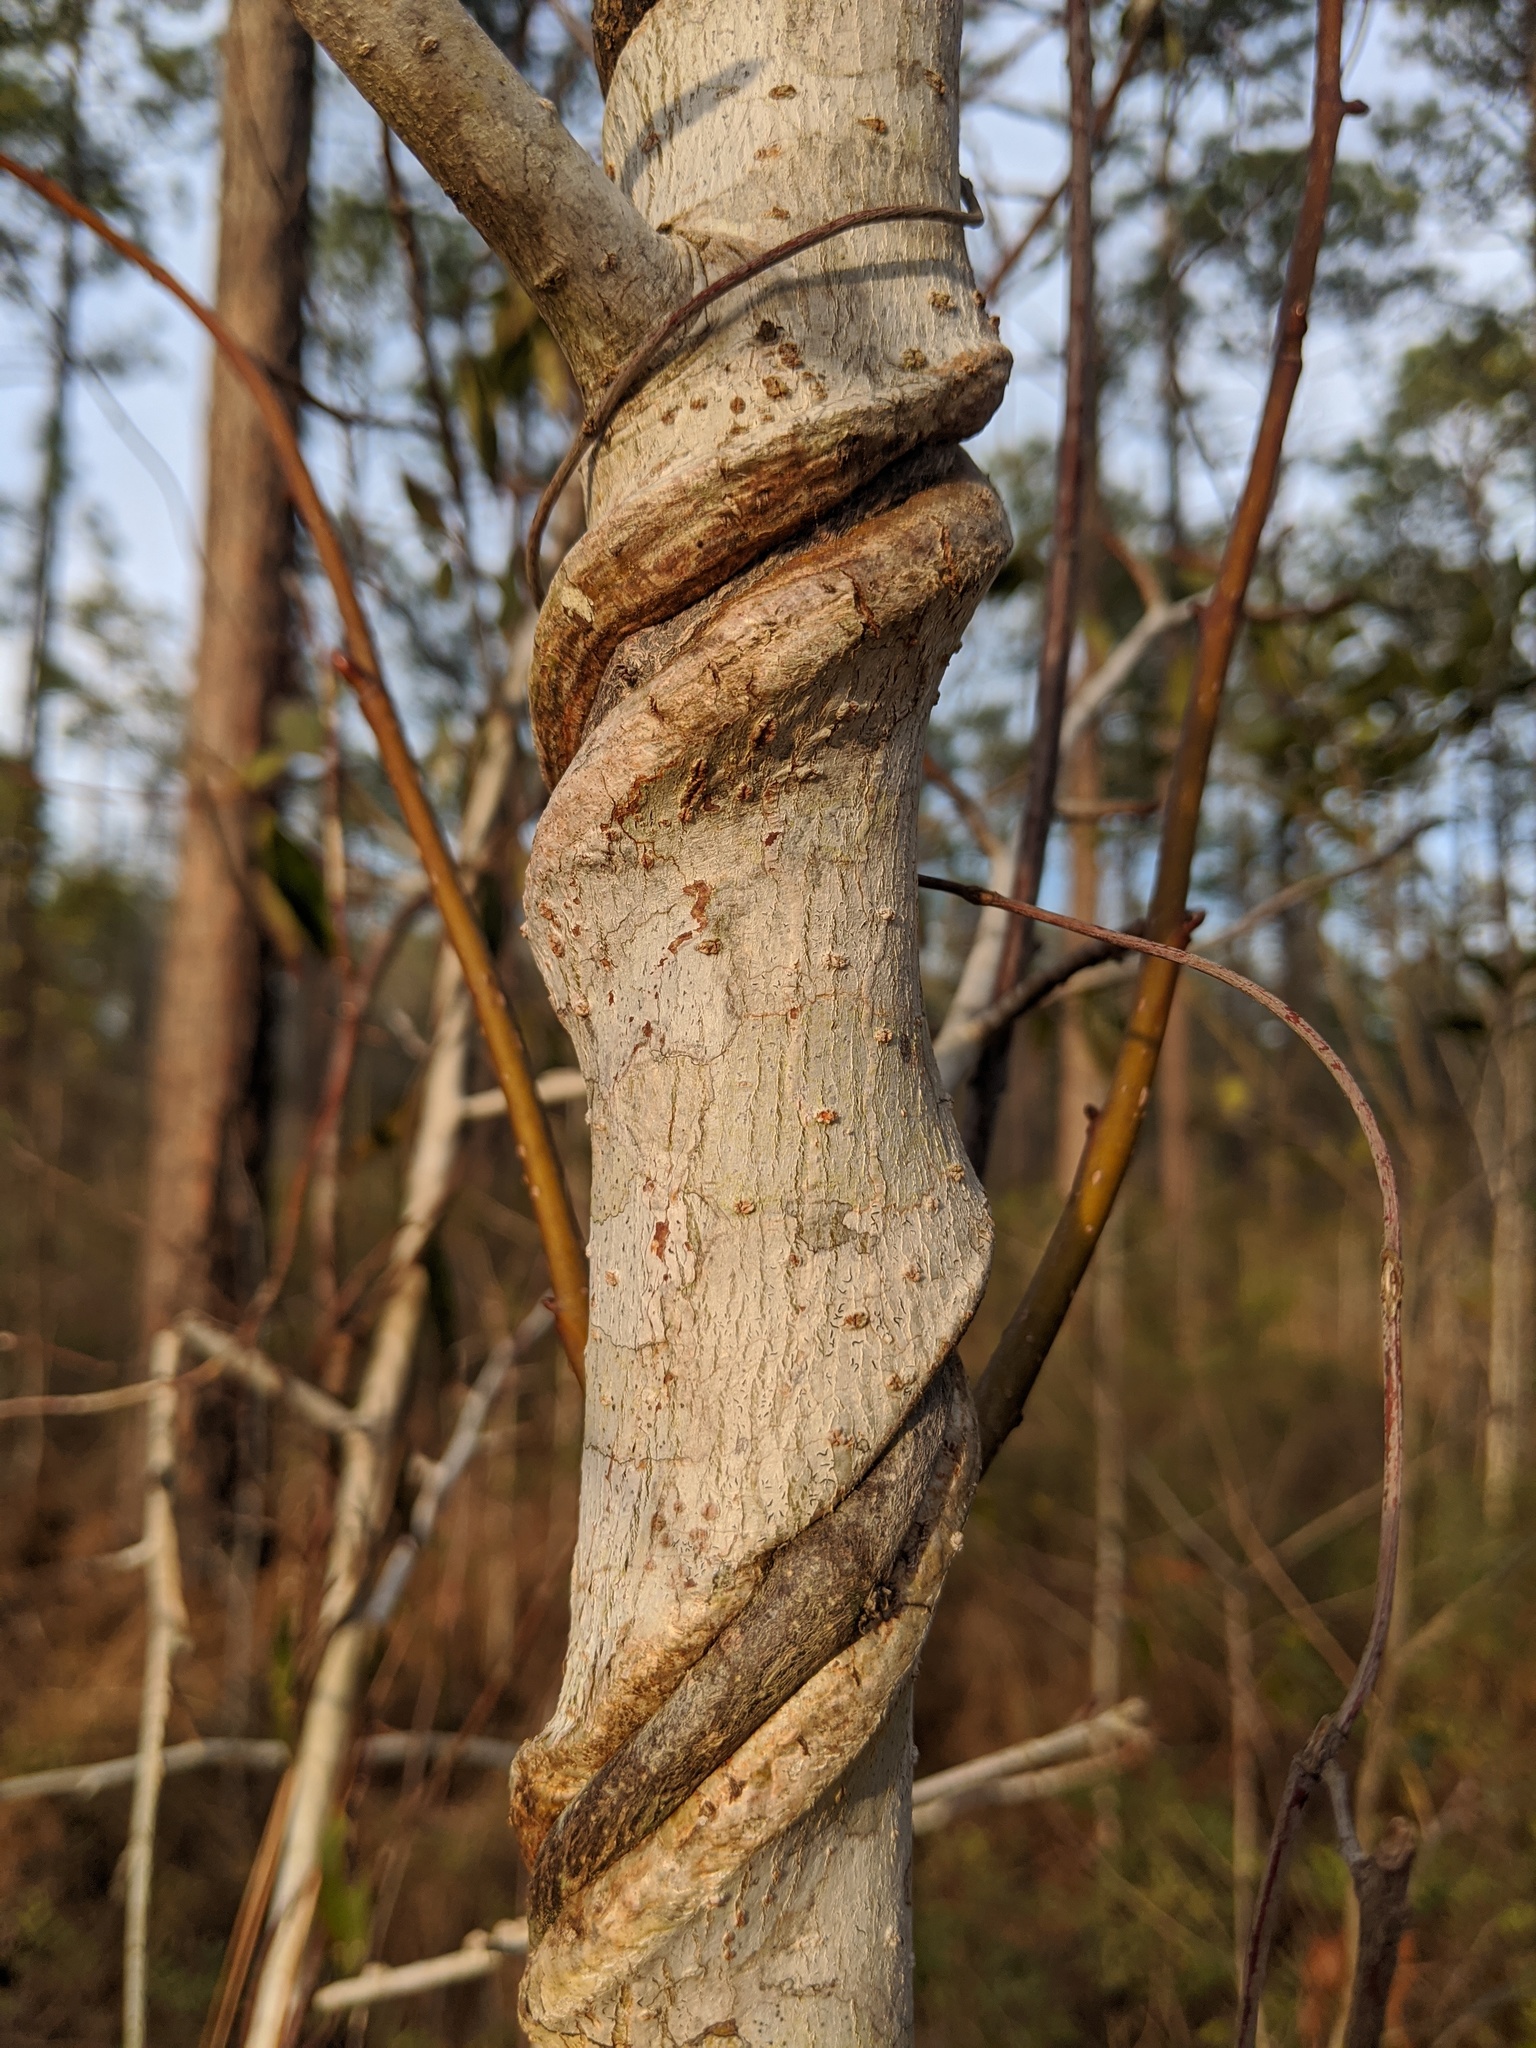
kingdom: Plantae
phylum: Tracheophyta
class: Magnoliopsida
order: Gentianales
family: Gelsemiaceae
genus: Gelsemium
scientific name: Gelsemium sempervirens
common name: Carolina-jasmine
